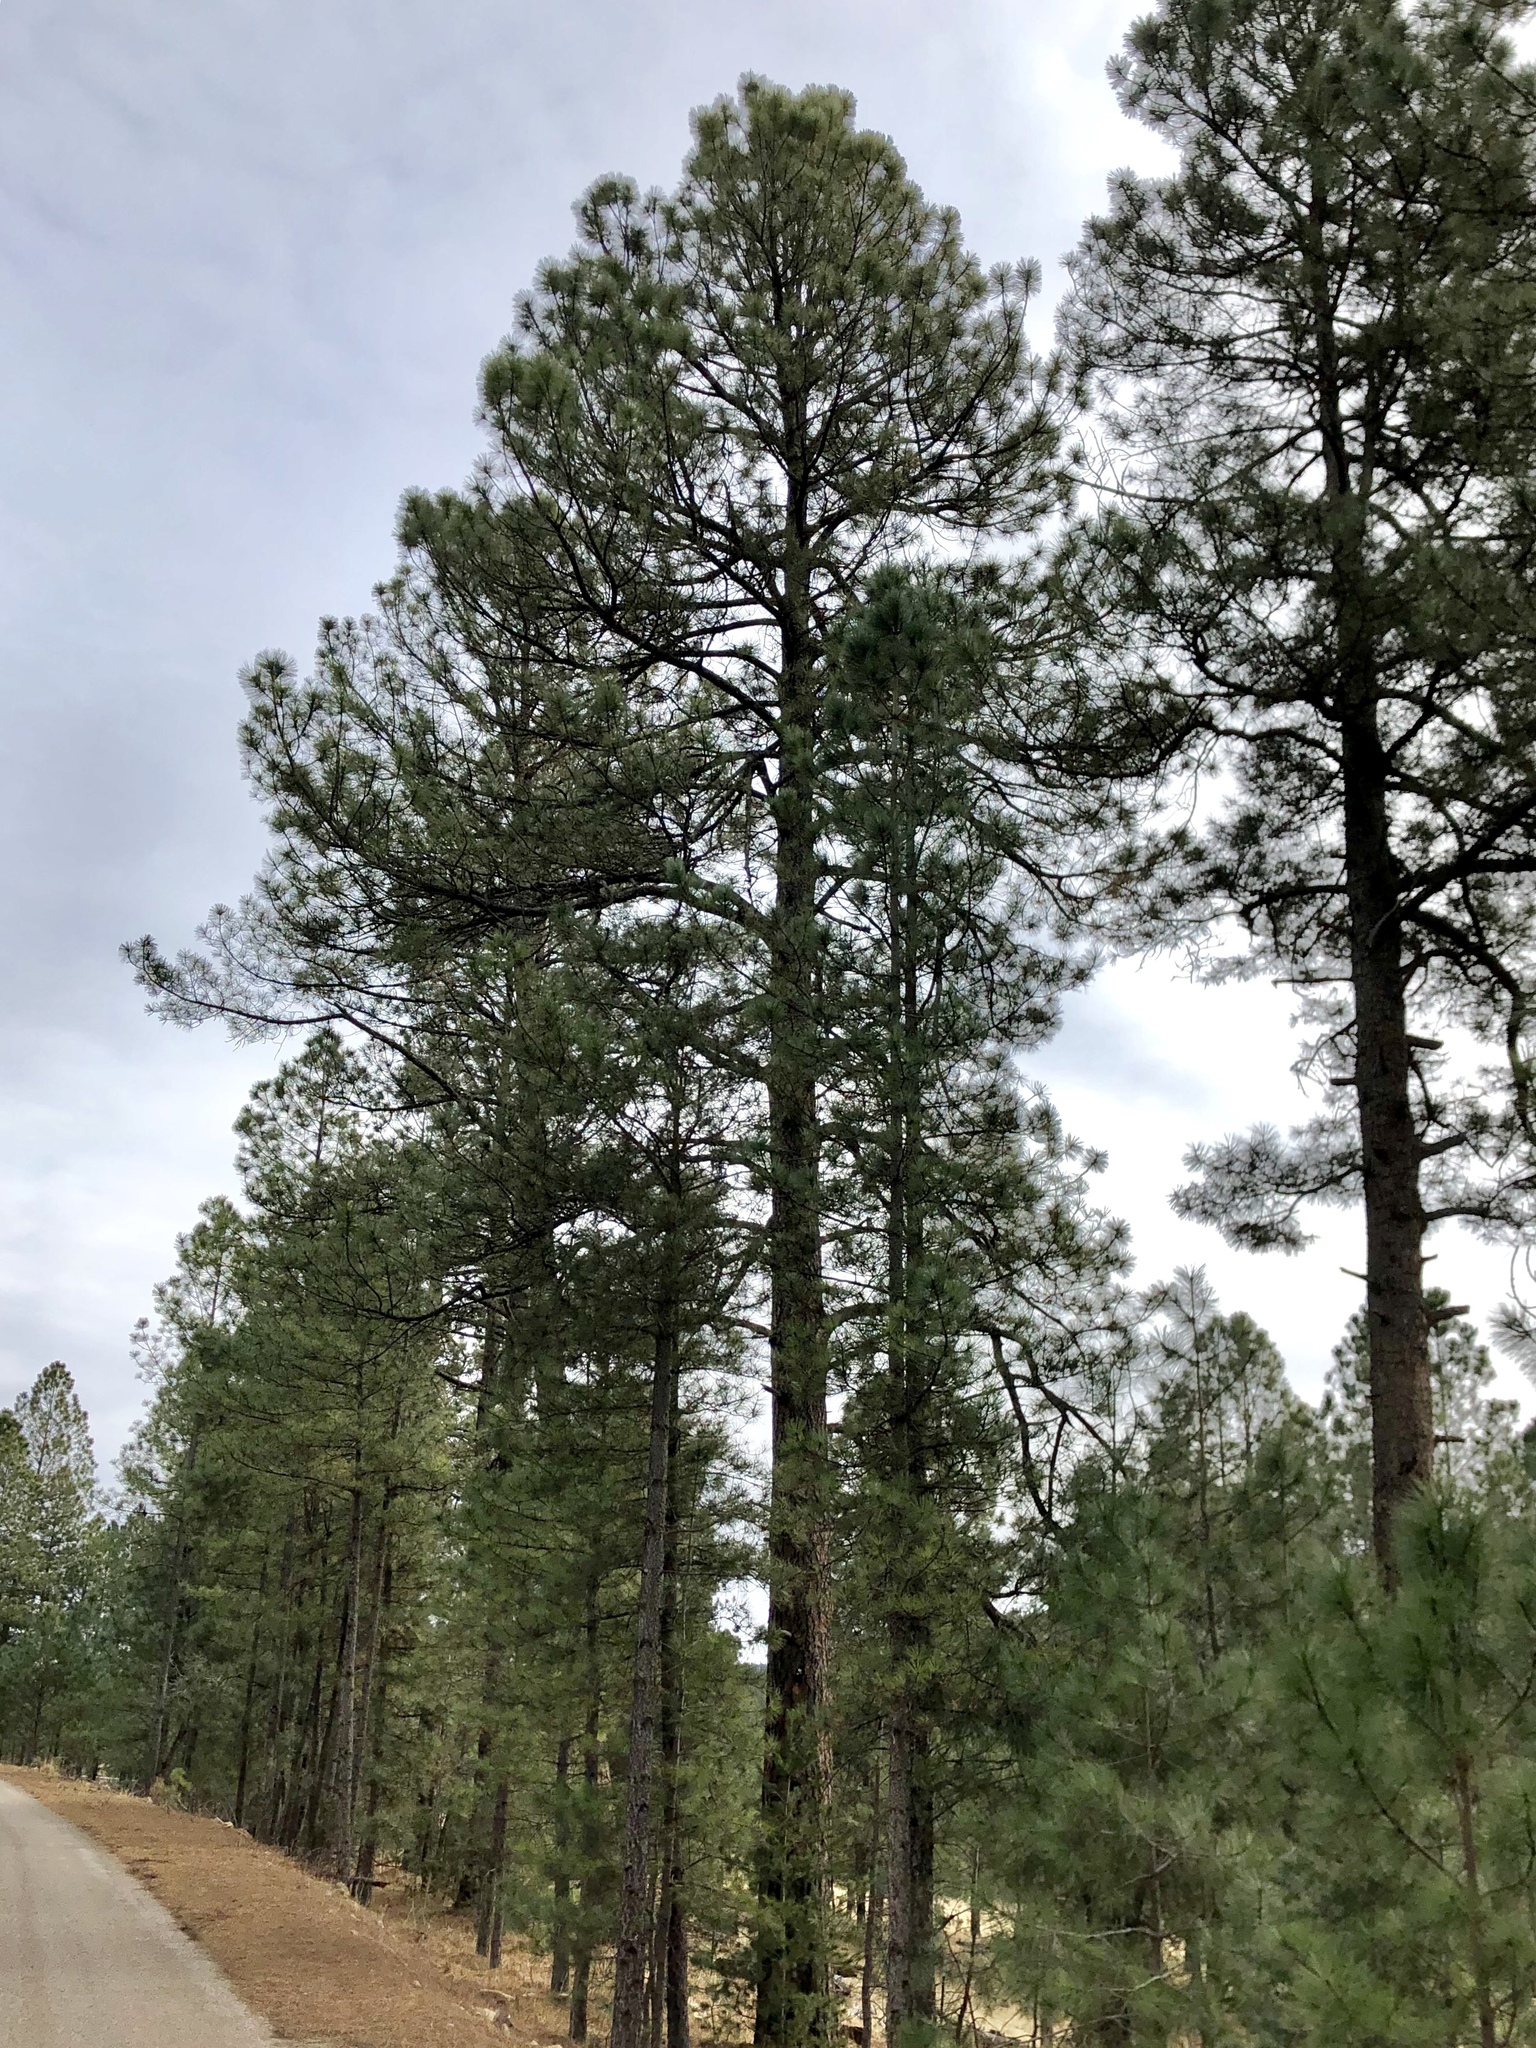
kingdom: Plantae
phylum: Tracheophyta
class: Pinopsida
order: Pinales
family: Pinaceae
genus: Pinus
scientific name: Pinus ponderosa
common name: Western yellow-pine
